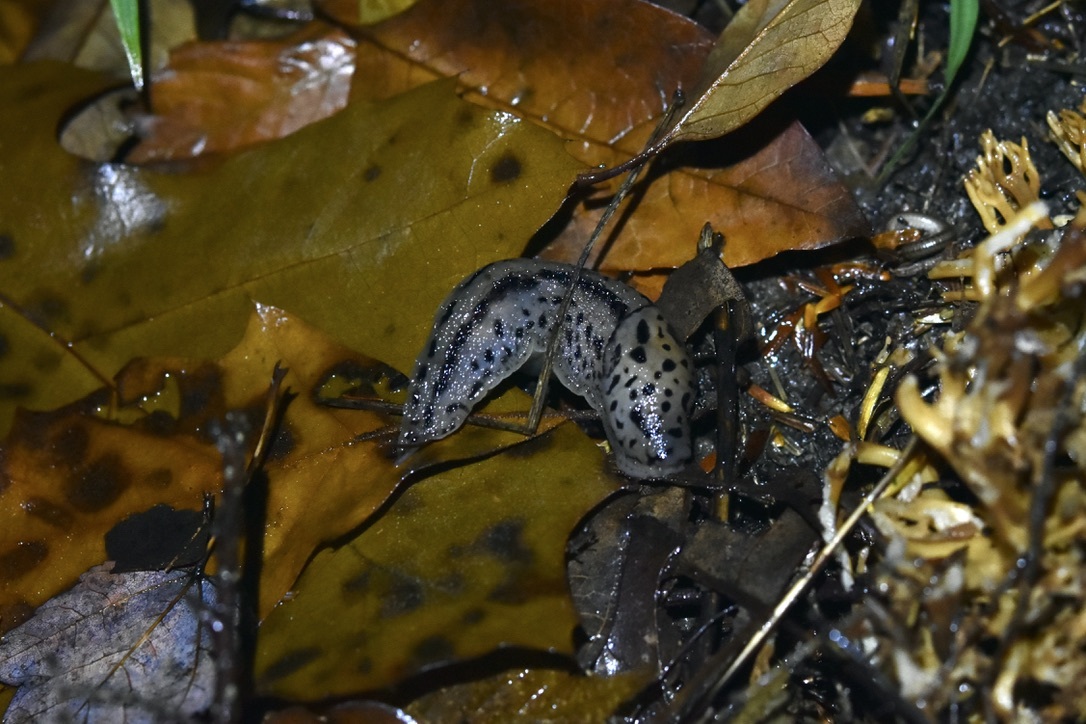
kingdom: Animalia
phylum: Mollusca
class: Gastropoda
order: Stylommatophora
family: Limacidae
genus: Limax
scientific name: Limax maximus
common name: Great grey slug
